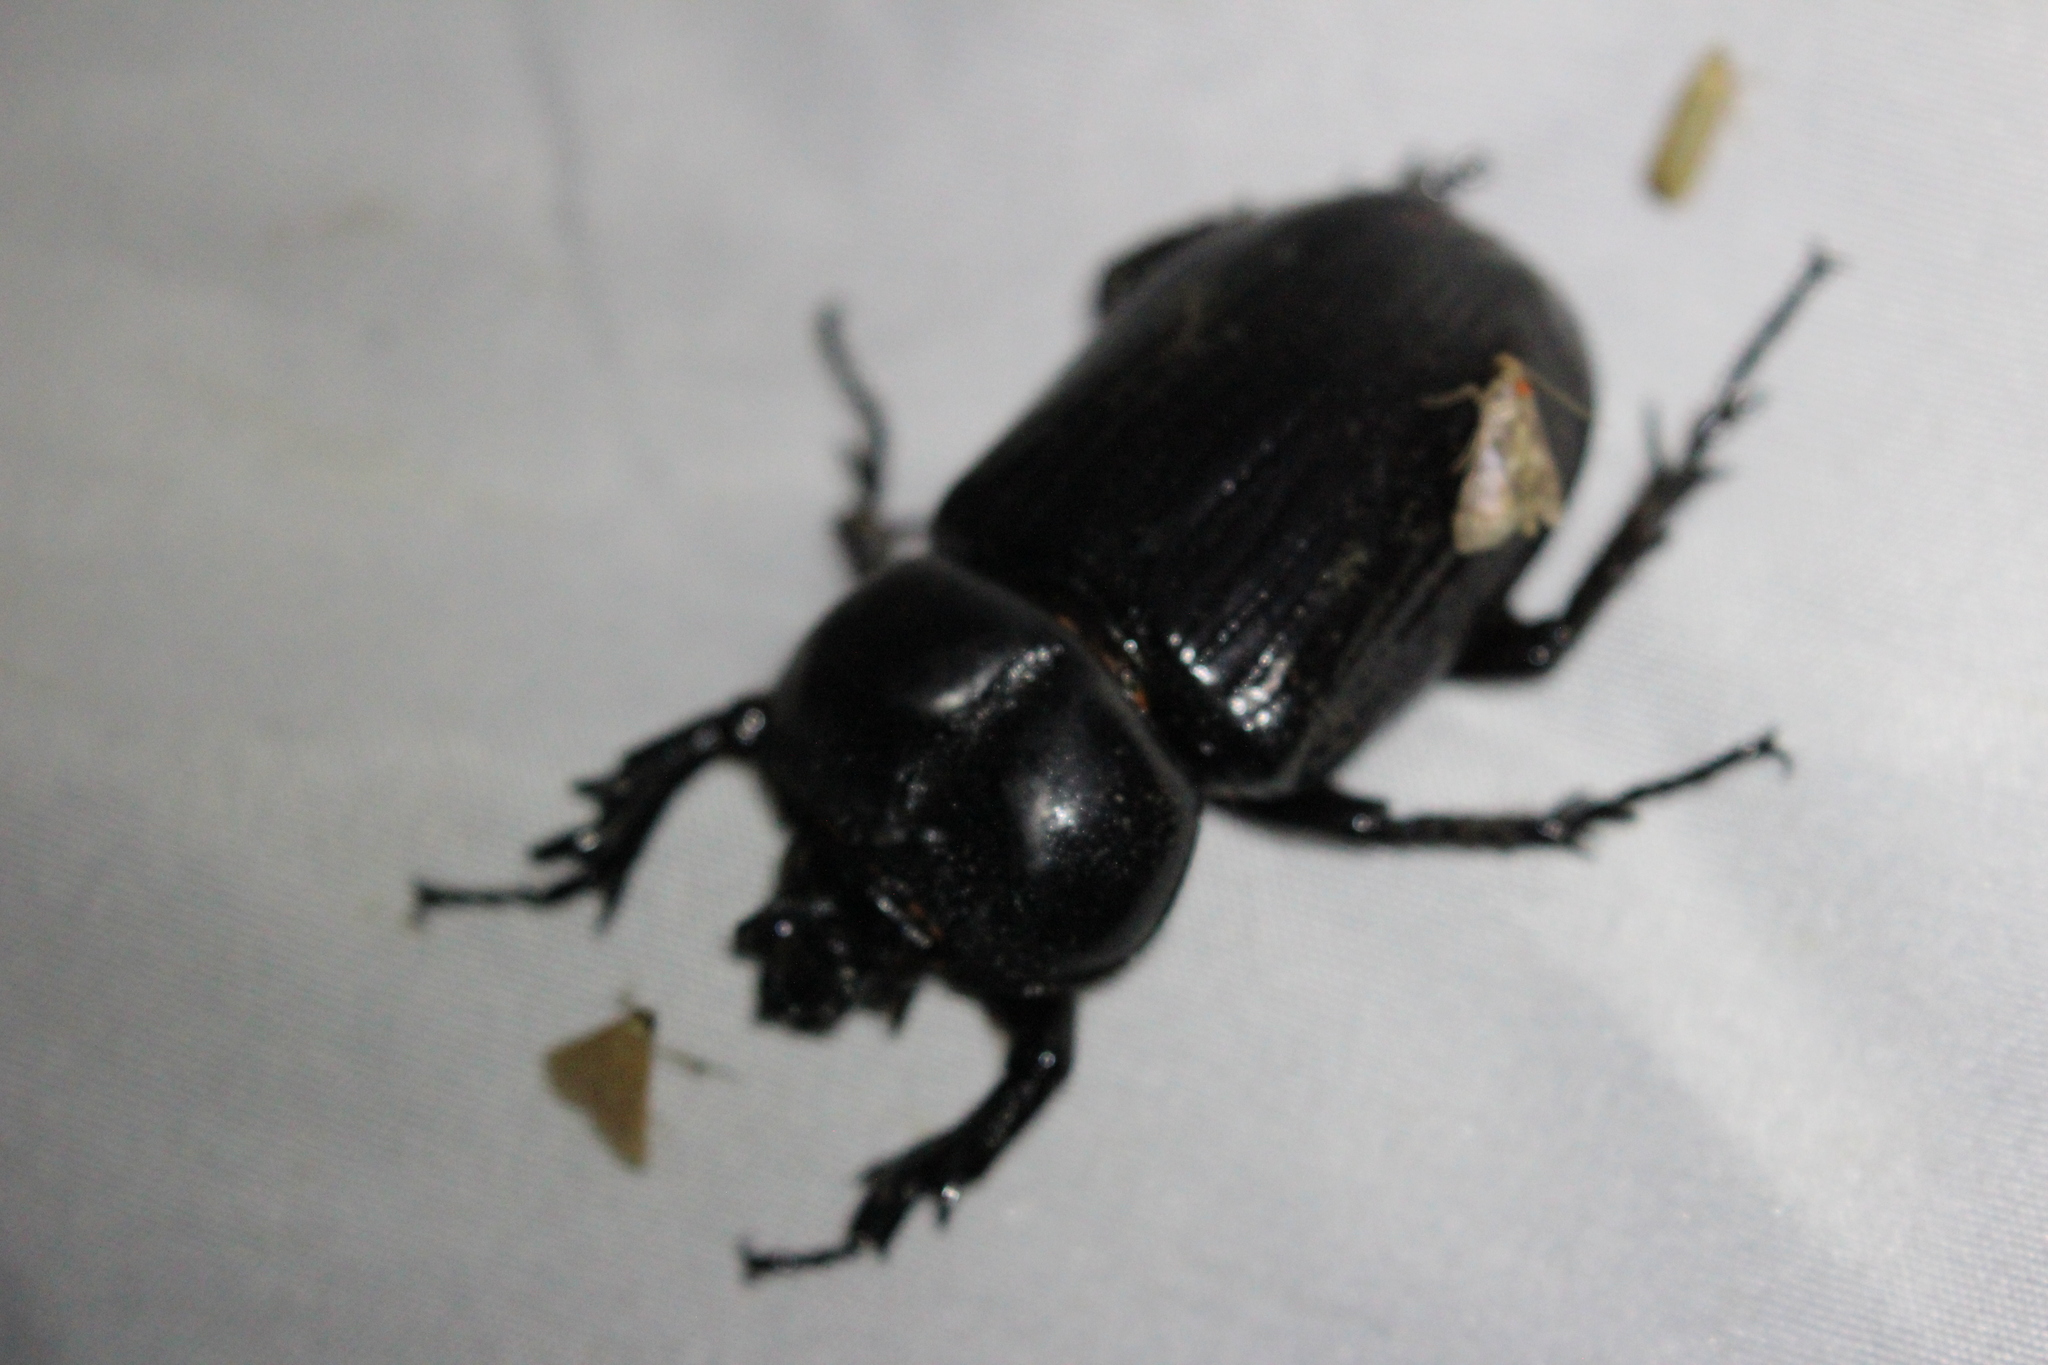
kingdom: Animalia
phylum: Arthropoda
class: Insecta
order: Coleoptera
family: Scarabaeidae
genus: Phileurus
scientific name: Phileurus truncatus
